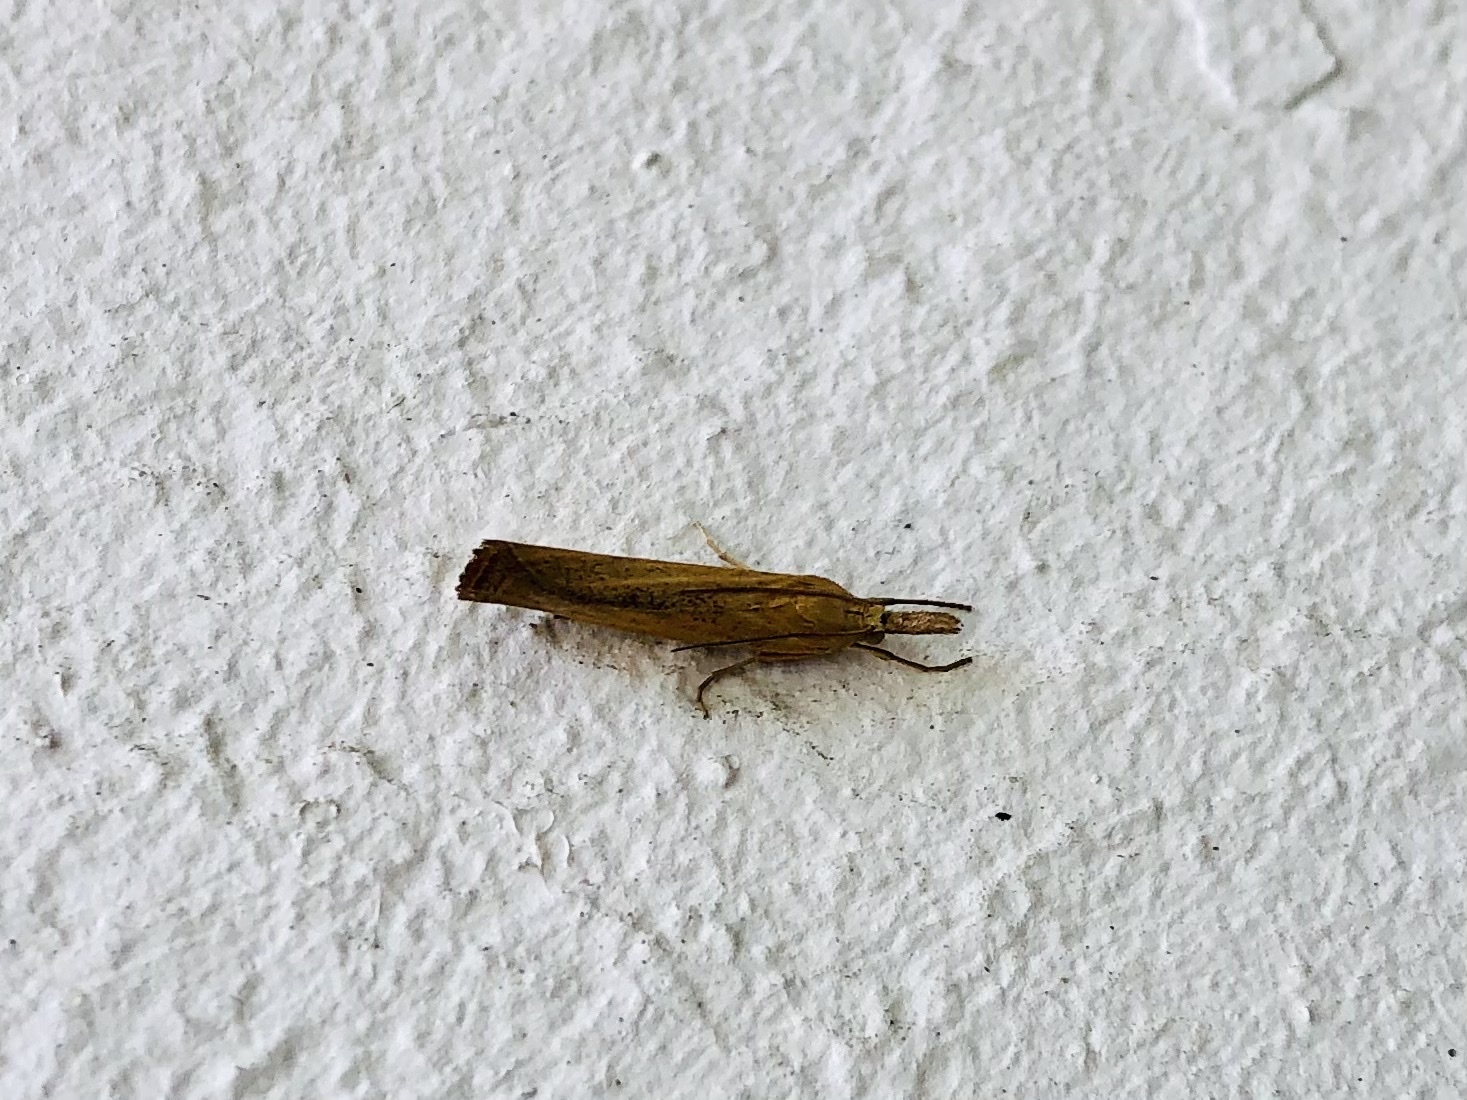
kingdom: Animalia
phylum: Arthropoda
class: Insecta
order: Lepidoptera
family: Crambidae
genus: Agriphila
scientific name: Agriphila tristellus
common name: Common grass-veneer
